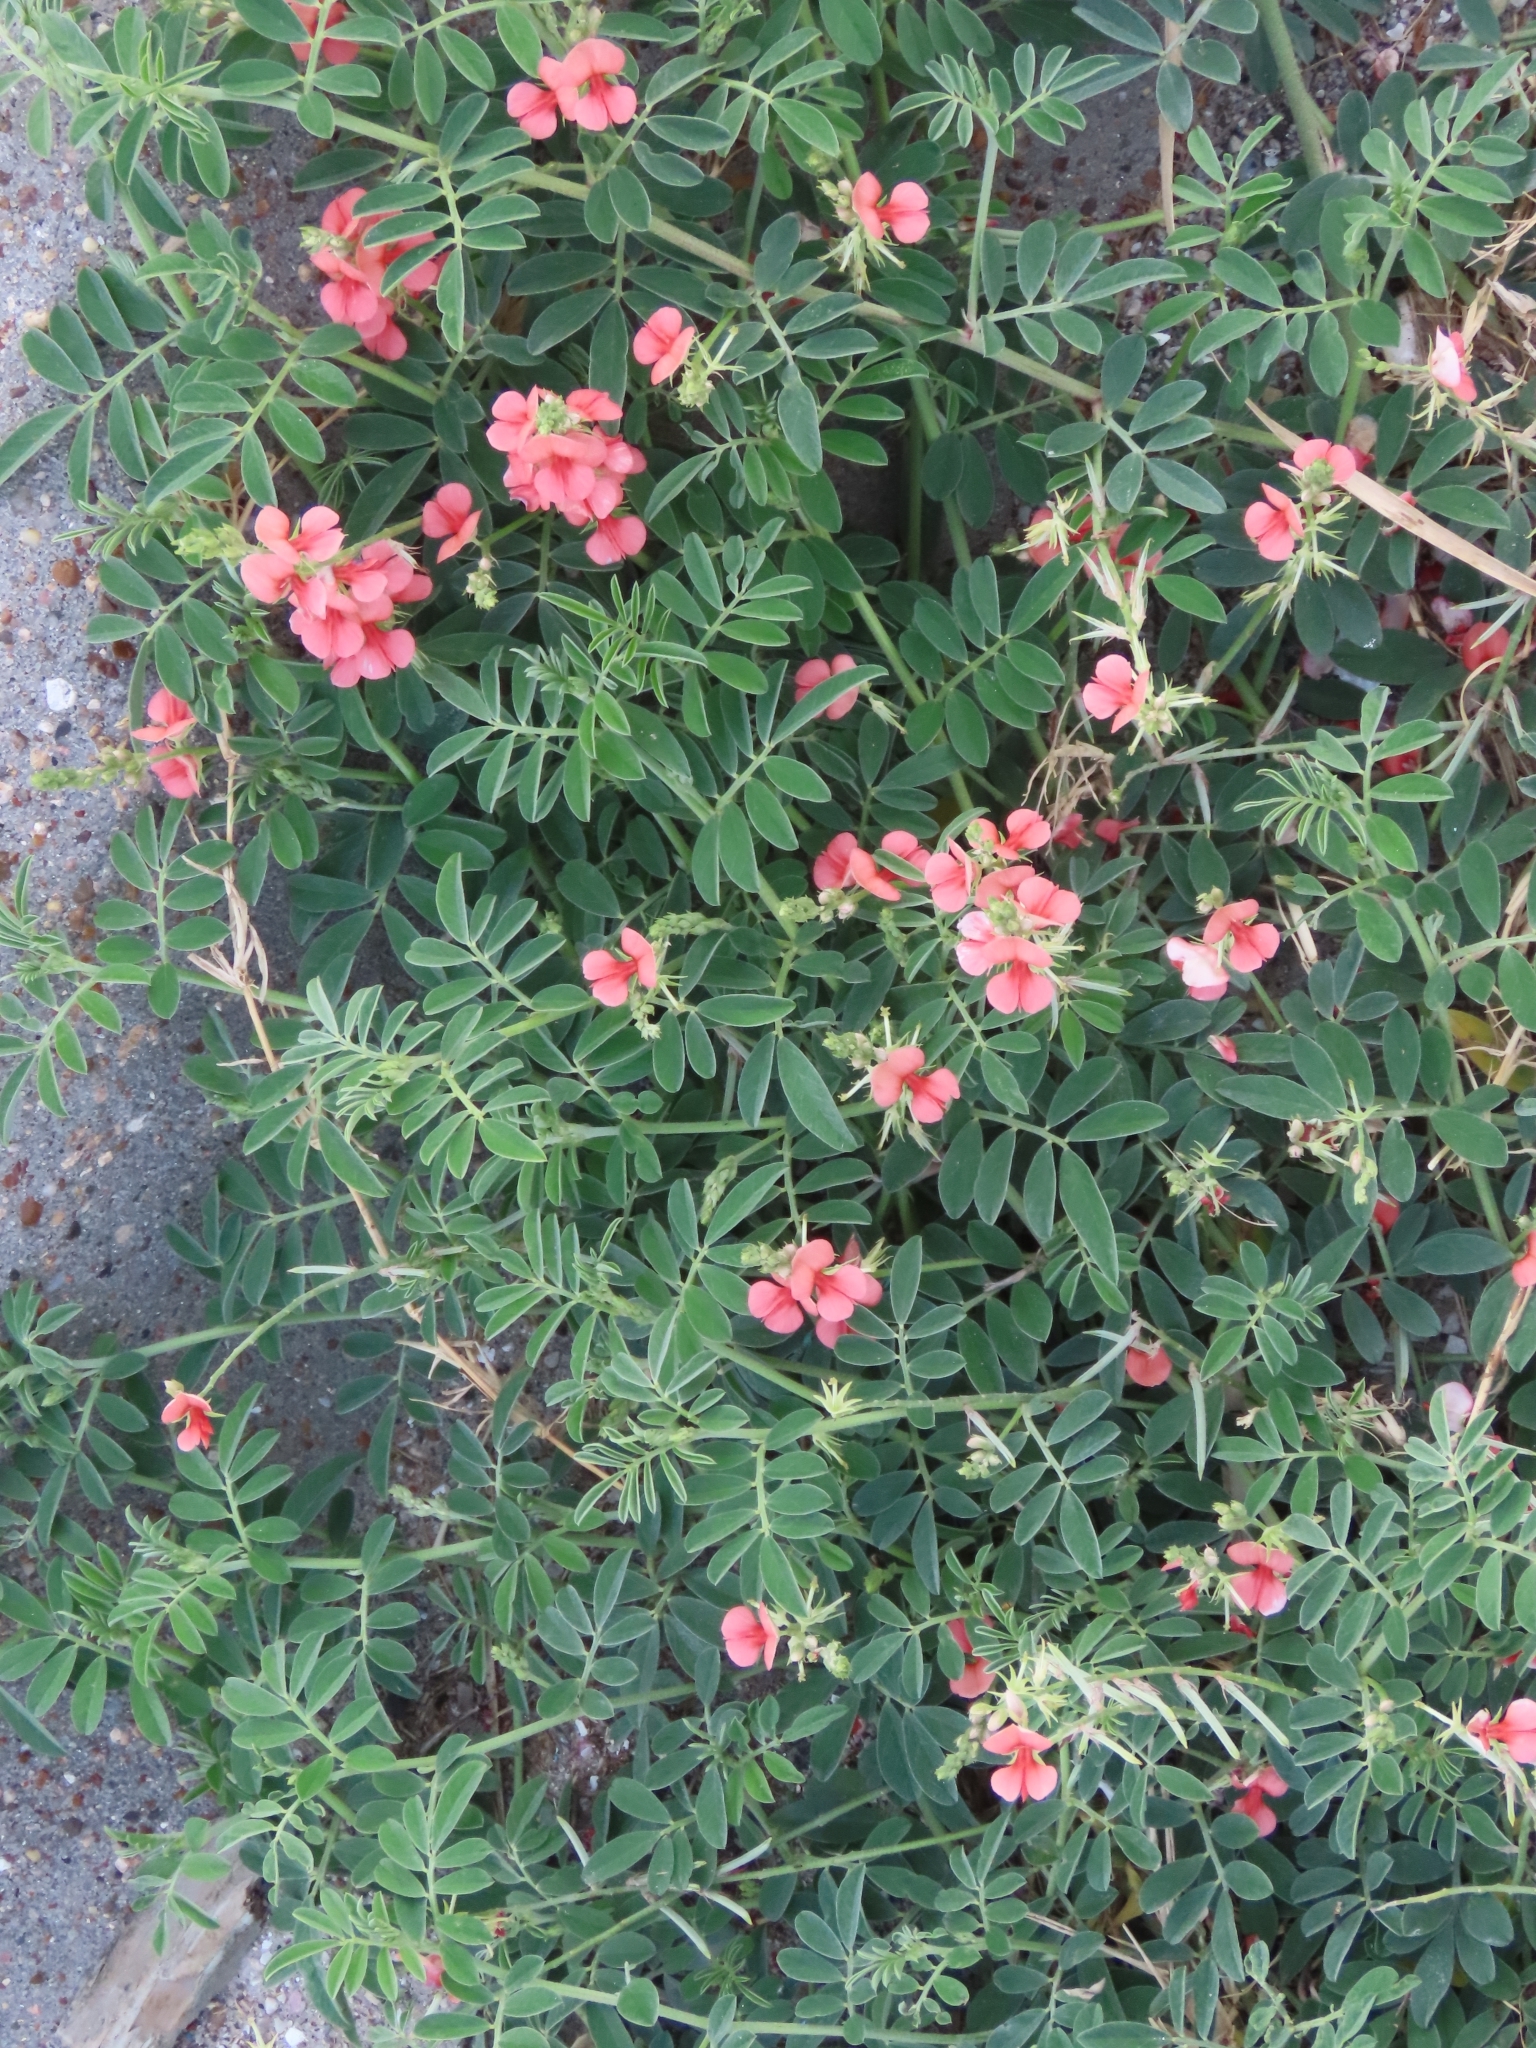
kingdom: Plantae
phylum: Tracheophyta
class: Magnoliopsida
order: Fabales
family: Fabaceae
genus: Indigofera
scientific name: Indigofera miniata
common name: Coast indigo
